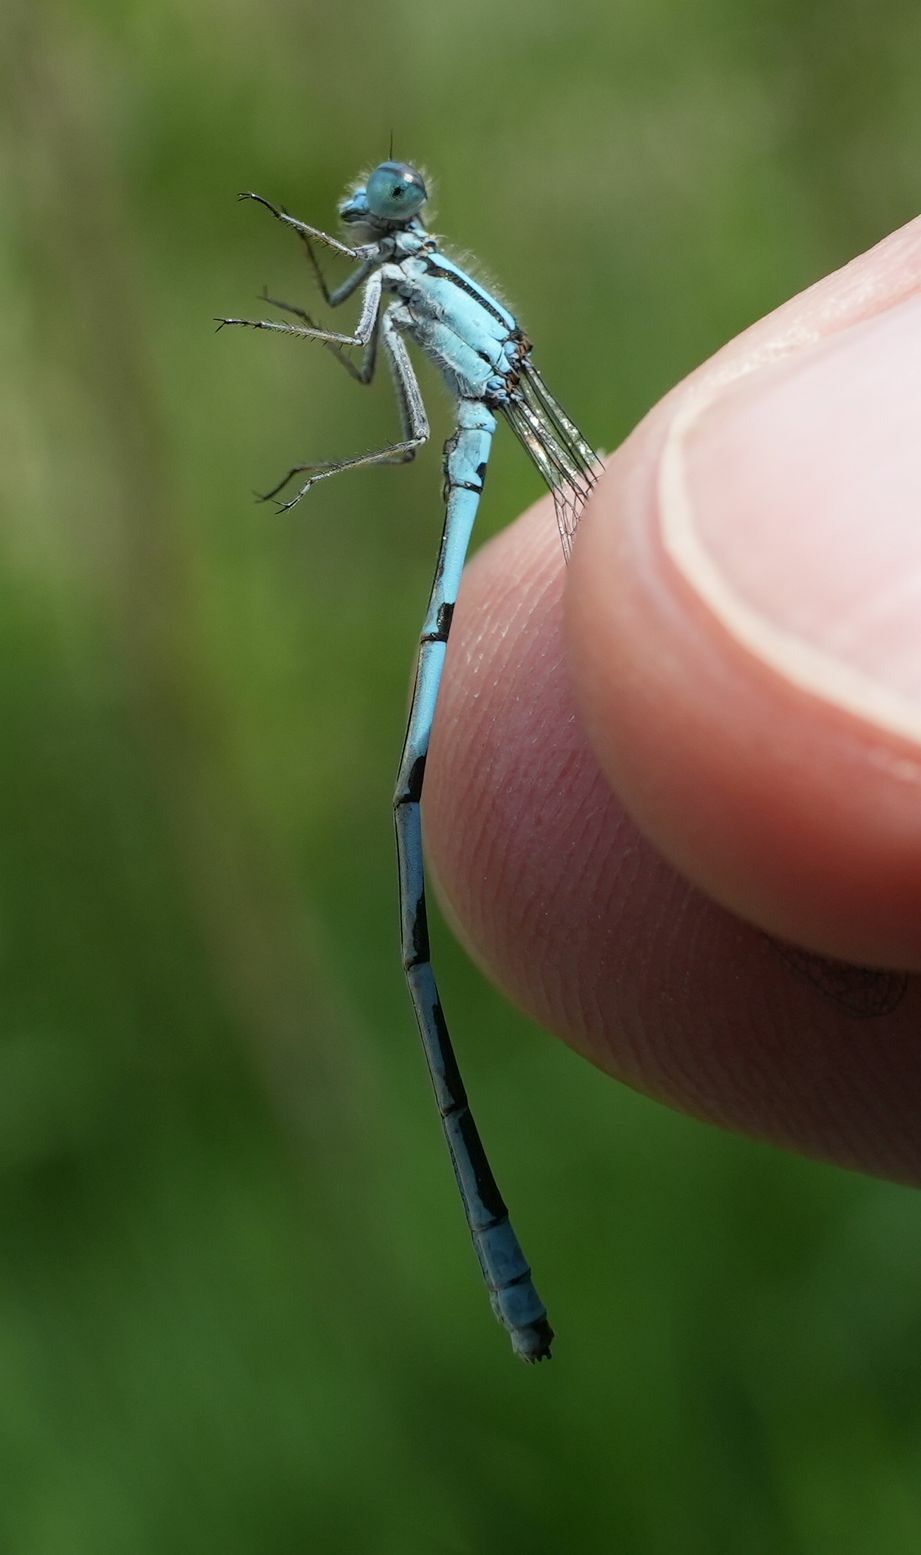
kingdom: Animalia
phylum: Arthropoda
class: Insecta
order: Odonata
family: Coenagrionidae
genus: Enallagma
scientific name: Enallagma ebrium
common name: Marsh bluet
